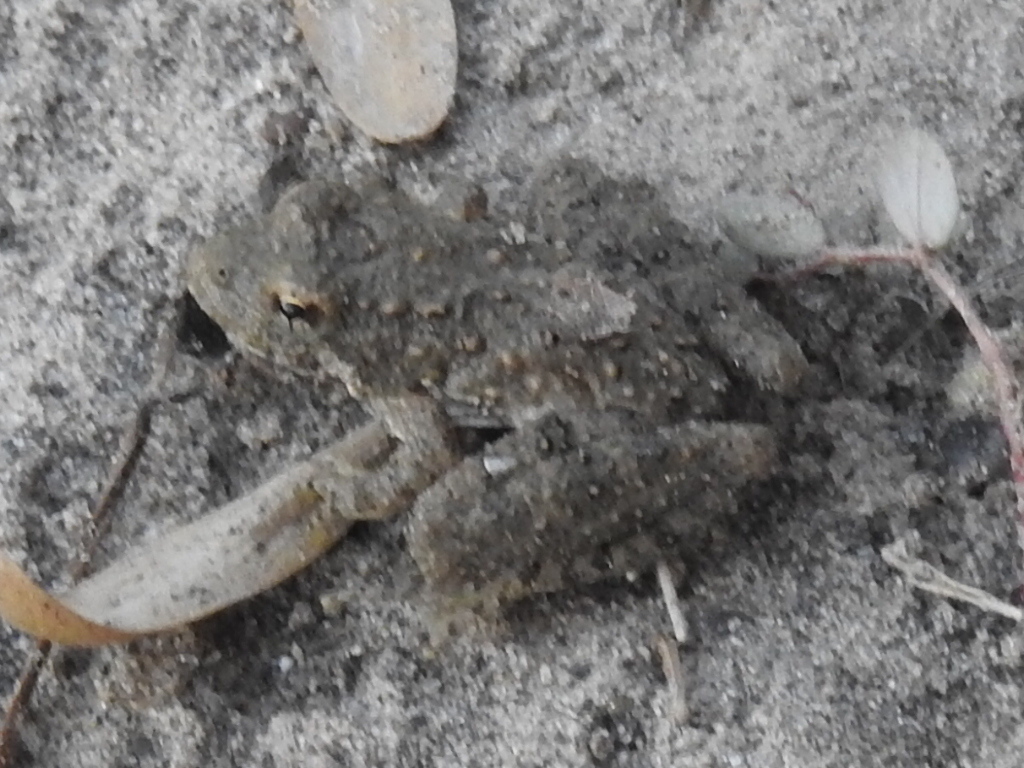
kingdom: Animalia
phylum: Chordata
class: Amphibia
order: Anura
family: Hylidae
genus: Acris
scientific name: Acris blanchardi
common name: Blanchard's cricket frog
